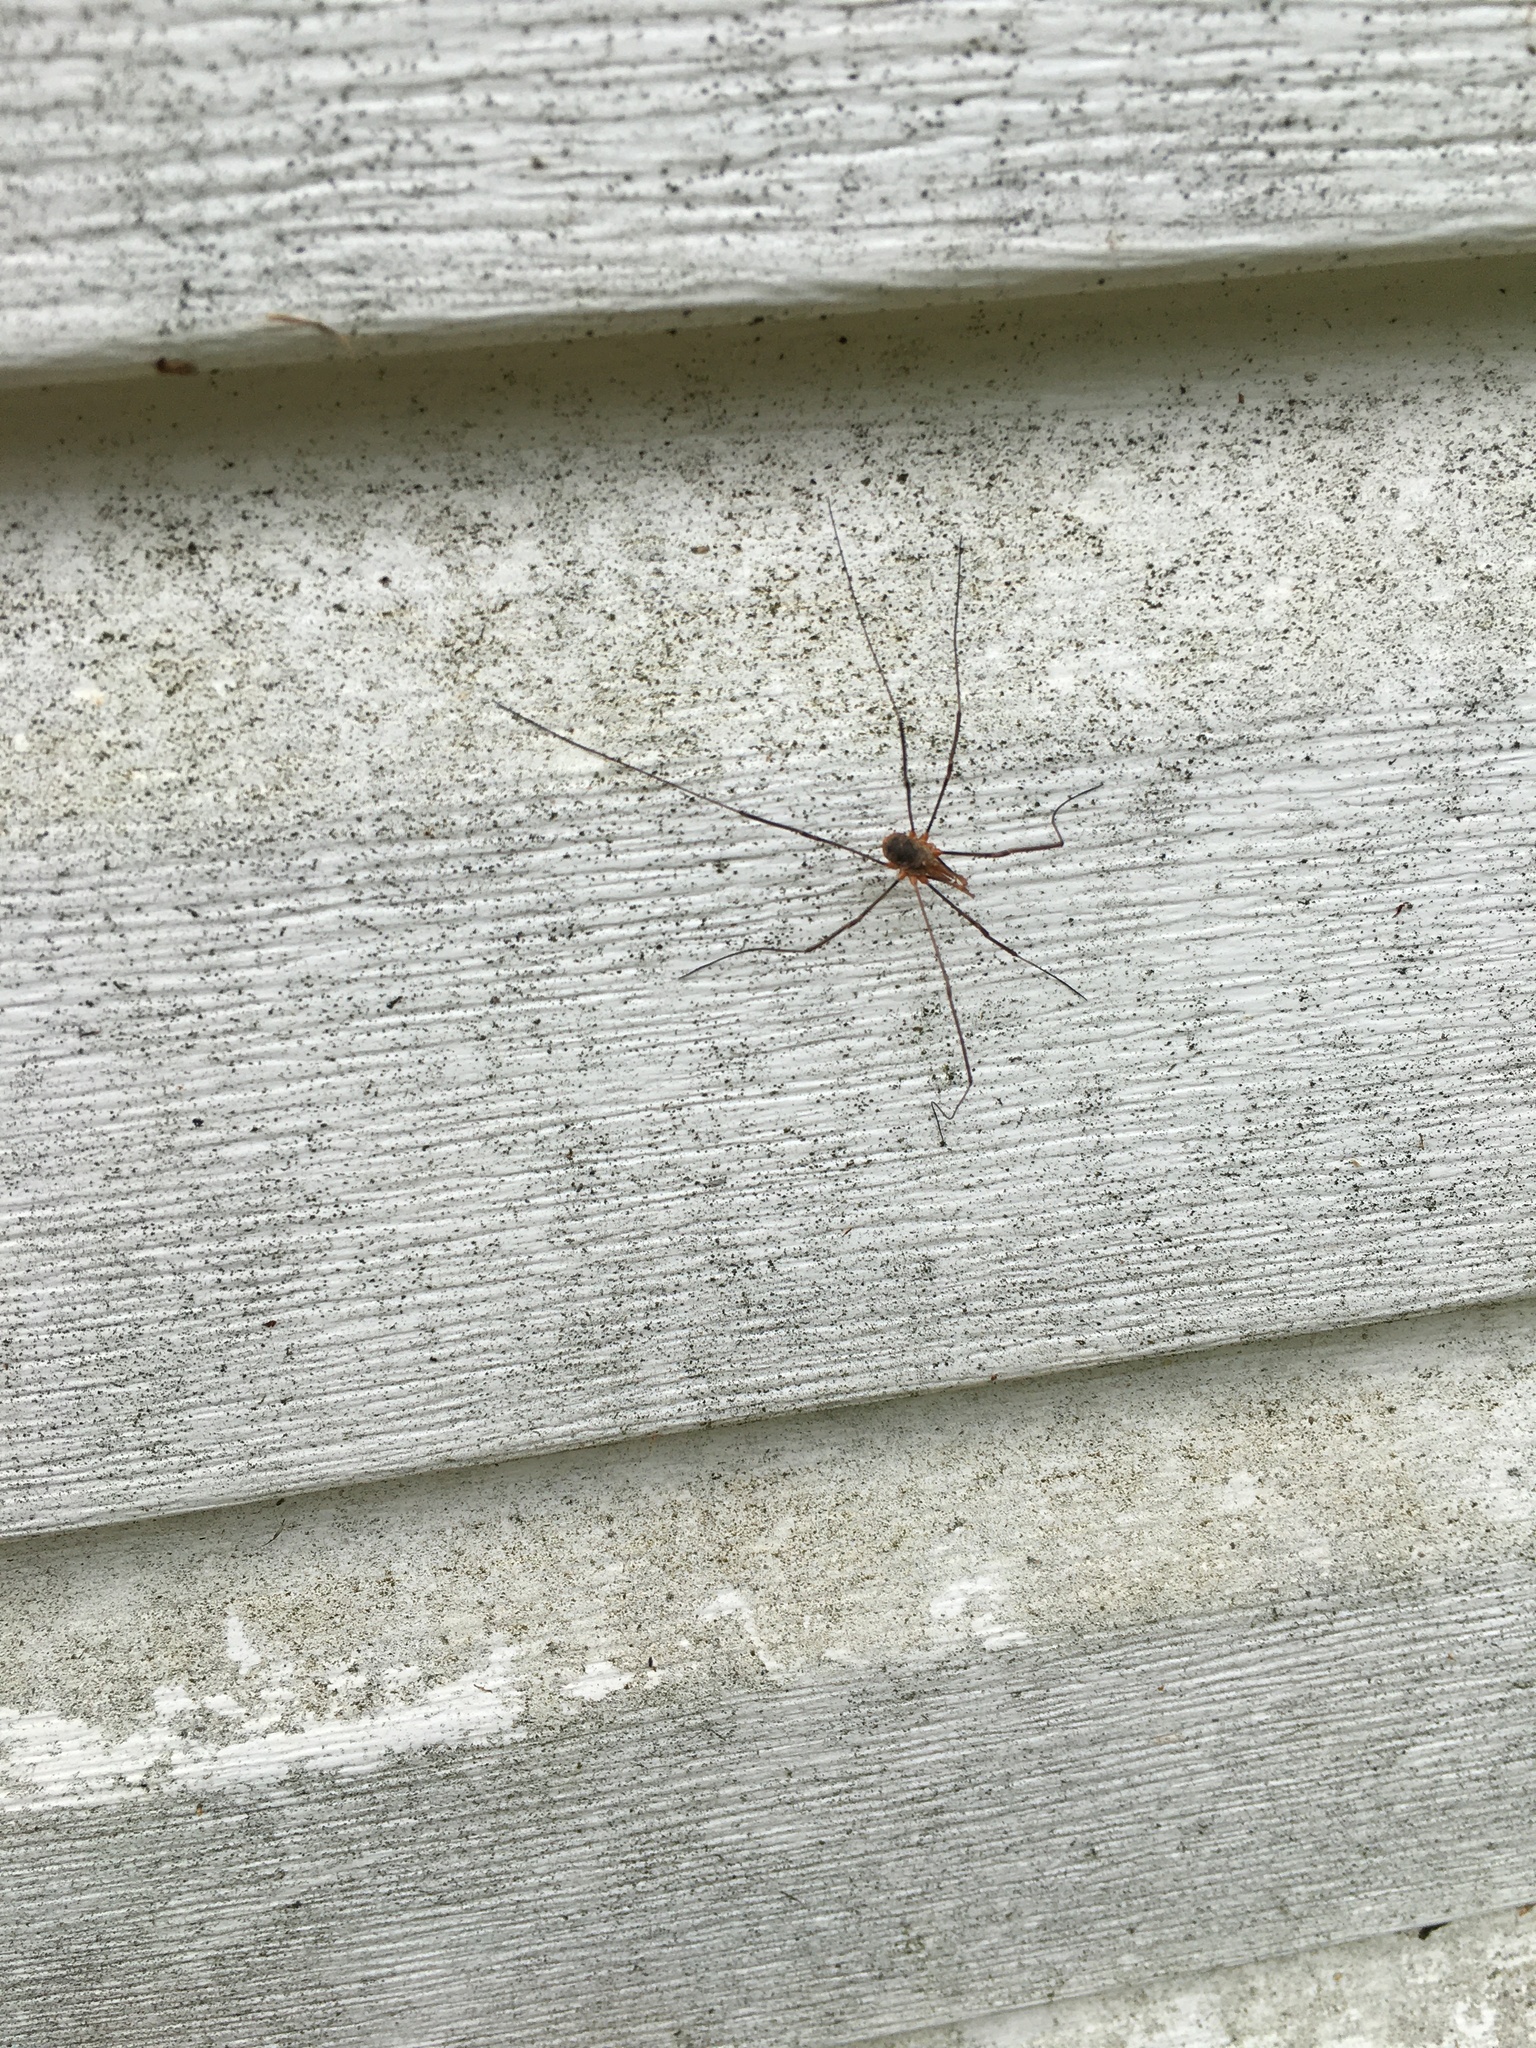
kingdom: Animalia
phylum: Arthropoda
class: Arachnida
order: Opiliones
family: Phalangiidae
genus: Phalangium
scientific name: Phalangium opilio
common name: Daddy longleg
